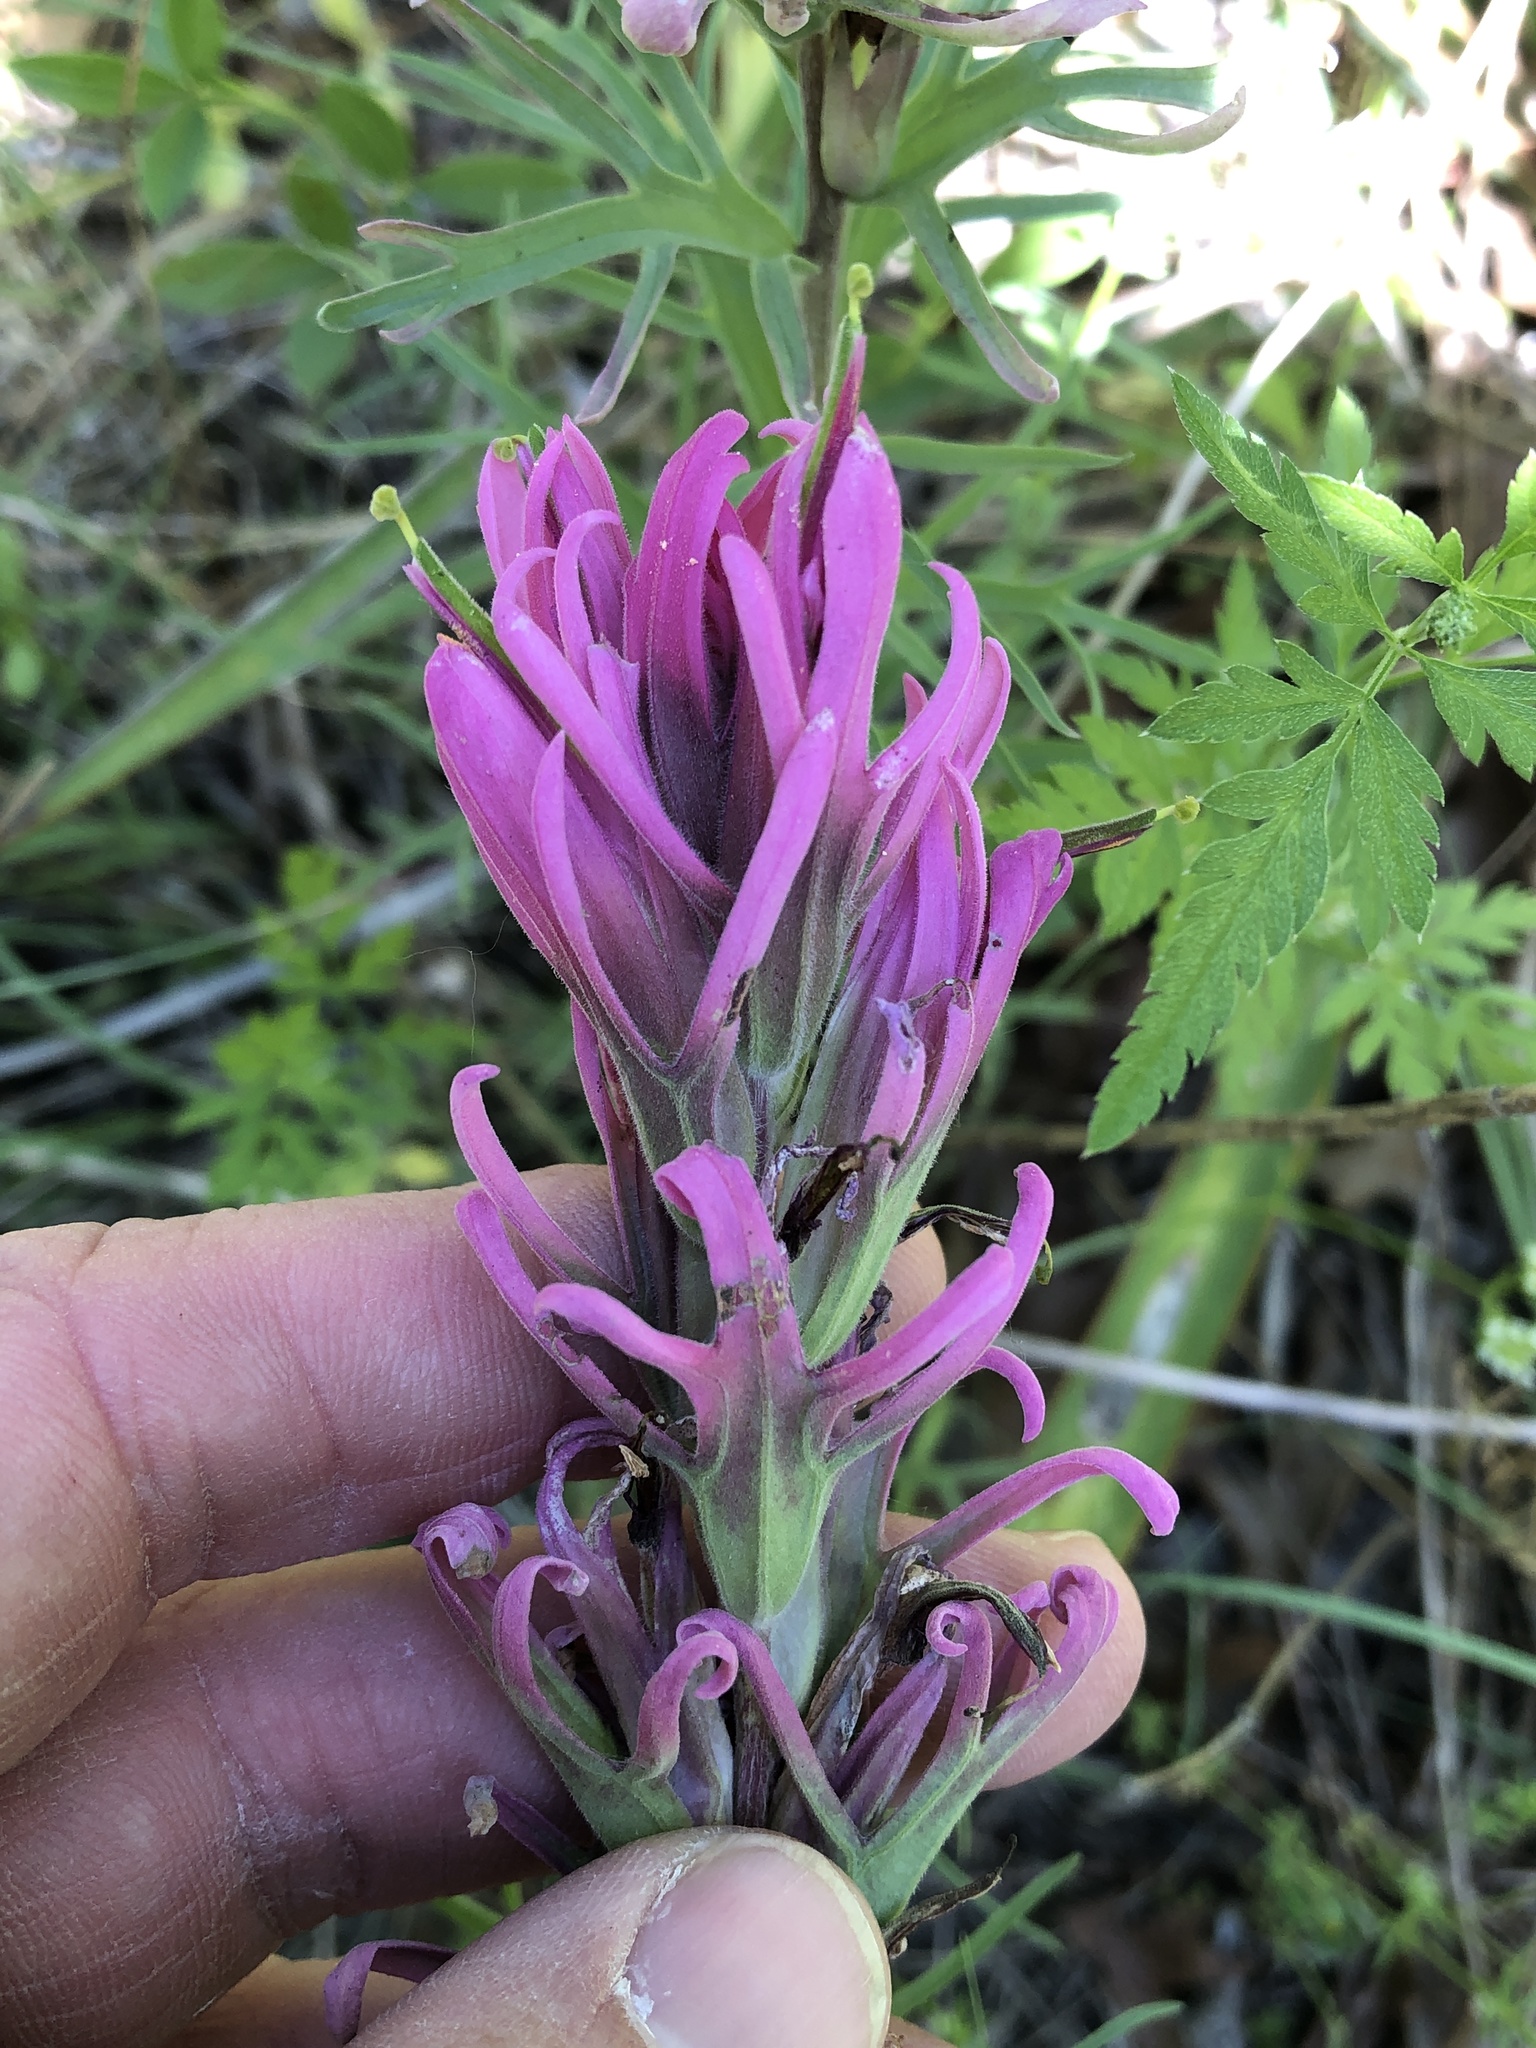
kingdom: Plantae
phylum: Tracheophyta
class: Magnoliopsida
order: Lamiales
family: Orobanchaceae
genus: Castilleja
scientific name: Castilleja purpurea
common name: Plains paintbrush
